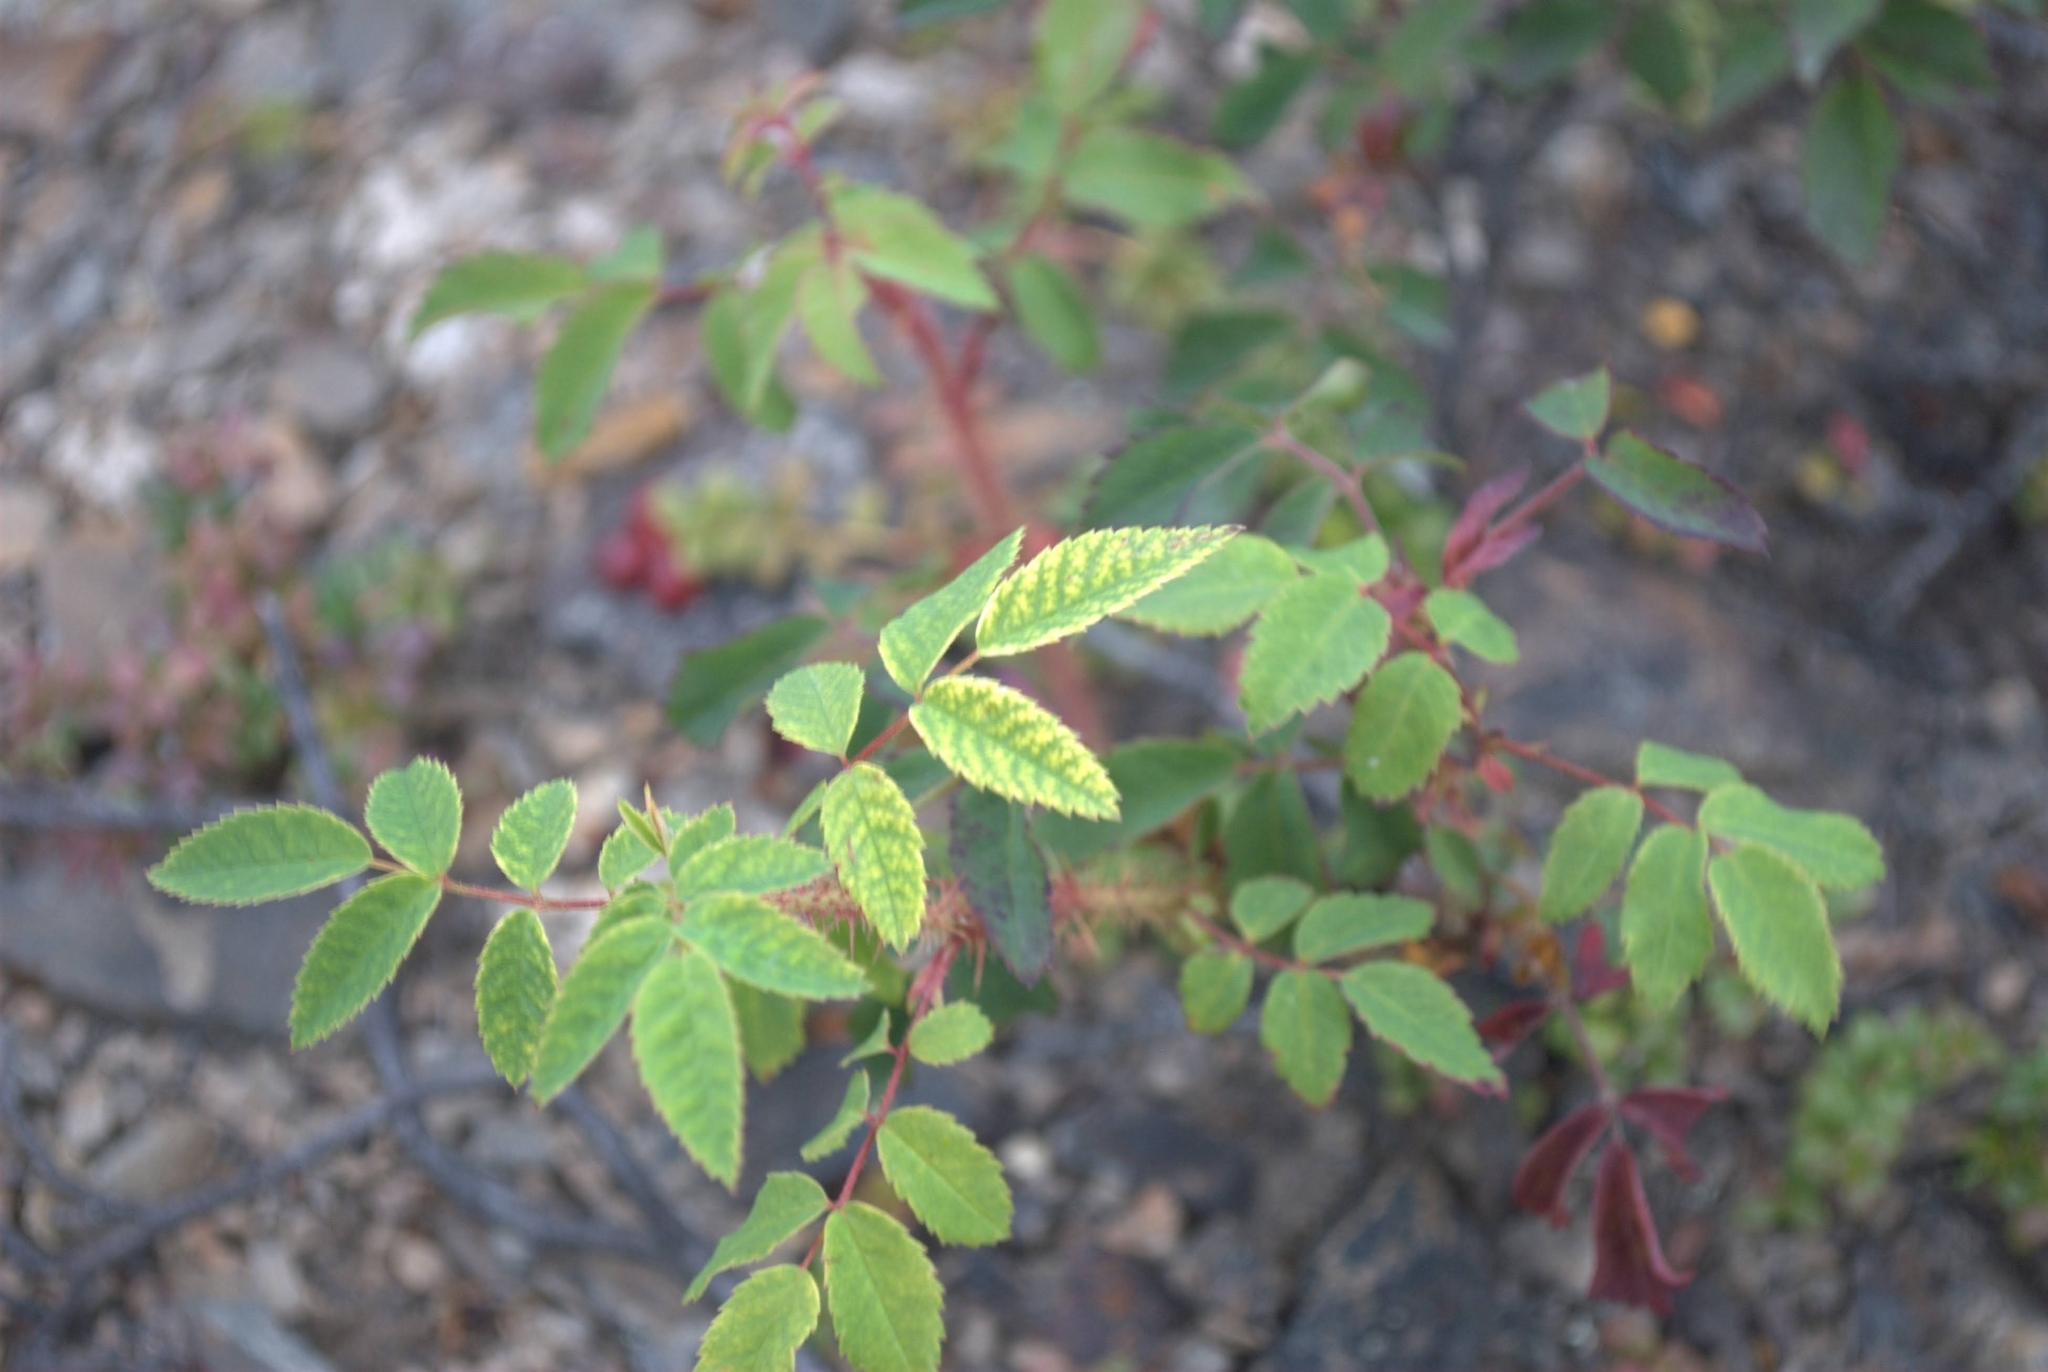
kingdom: Plantae
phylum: Tracheophyta
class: Magnoliopsida
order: Rosales
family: Rosaceae
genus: Rosa
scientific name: Rosa acicularis
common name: Prickly rose
